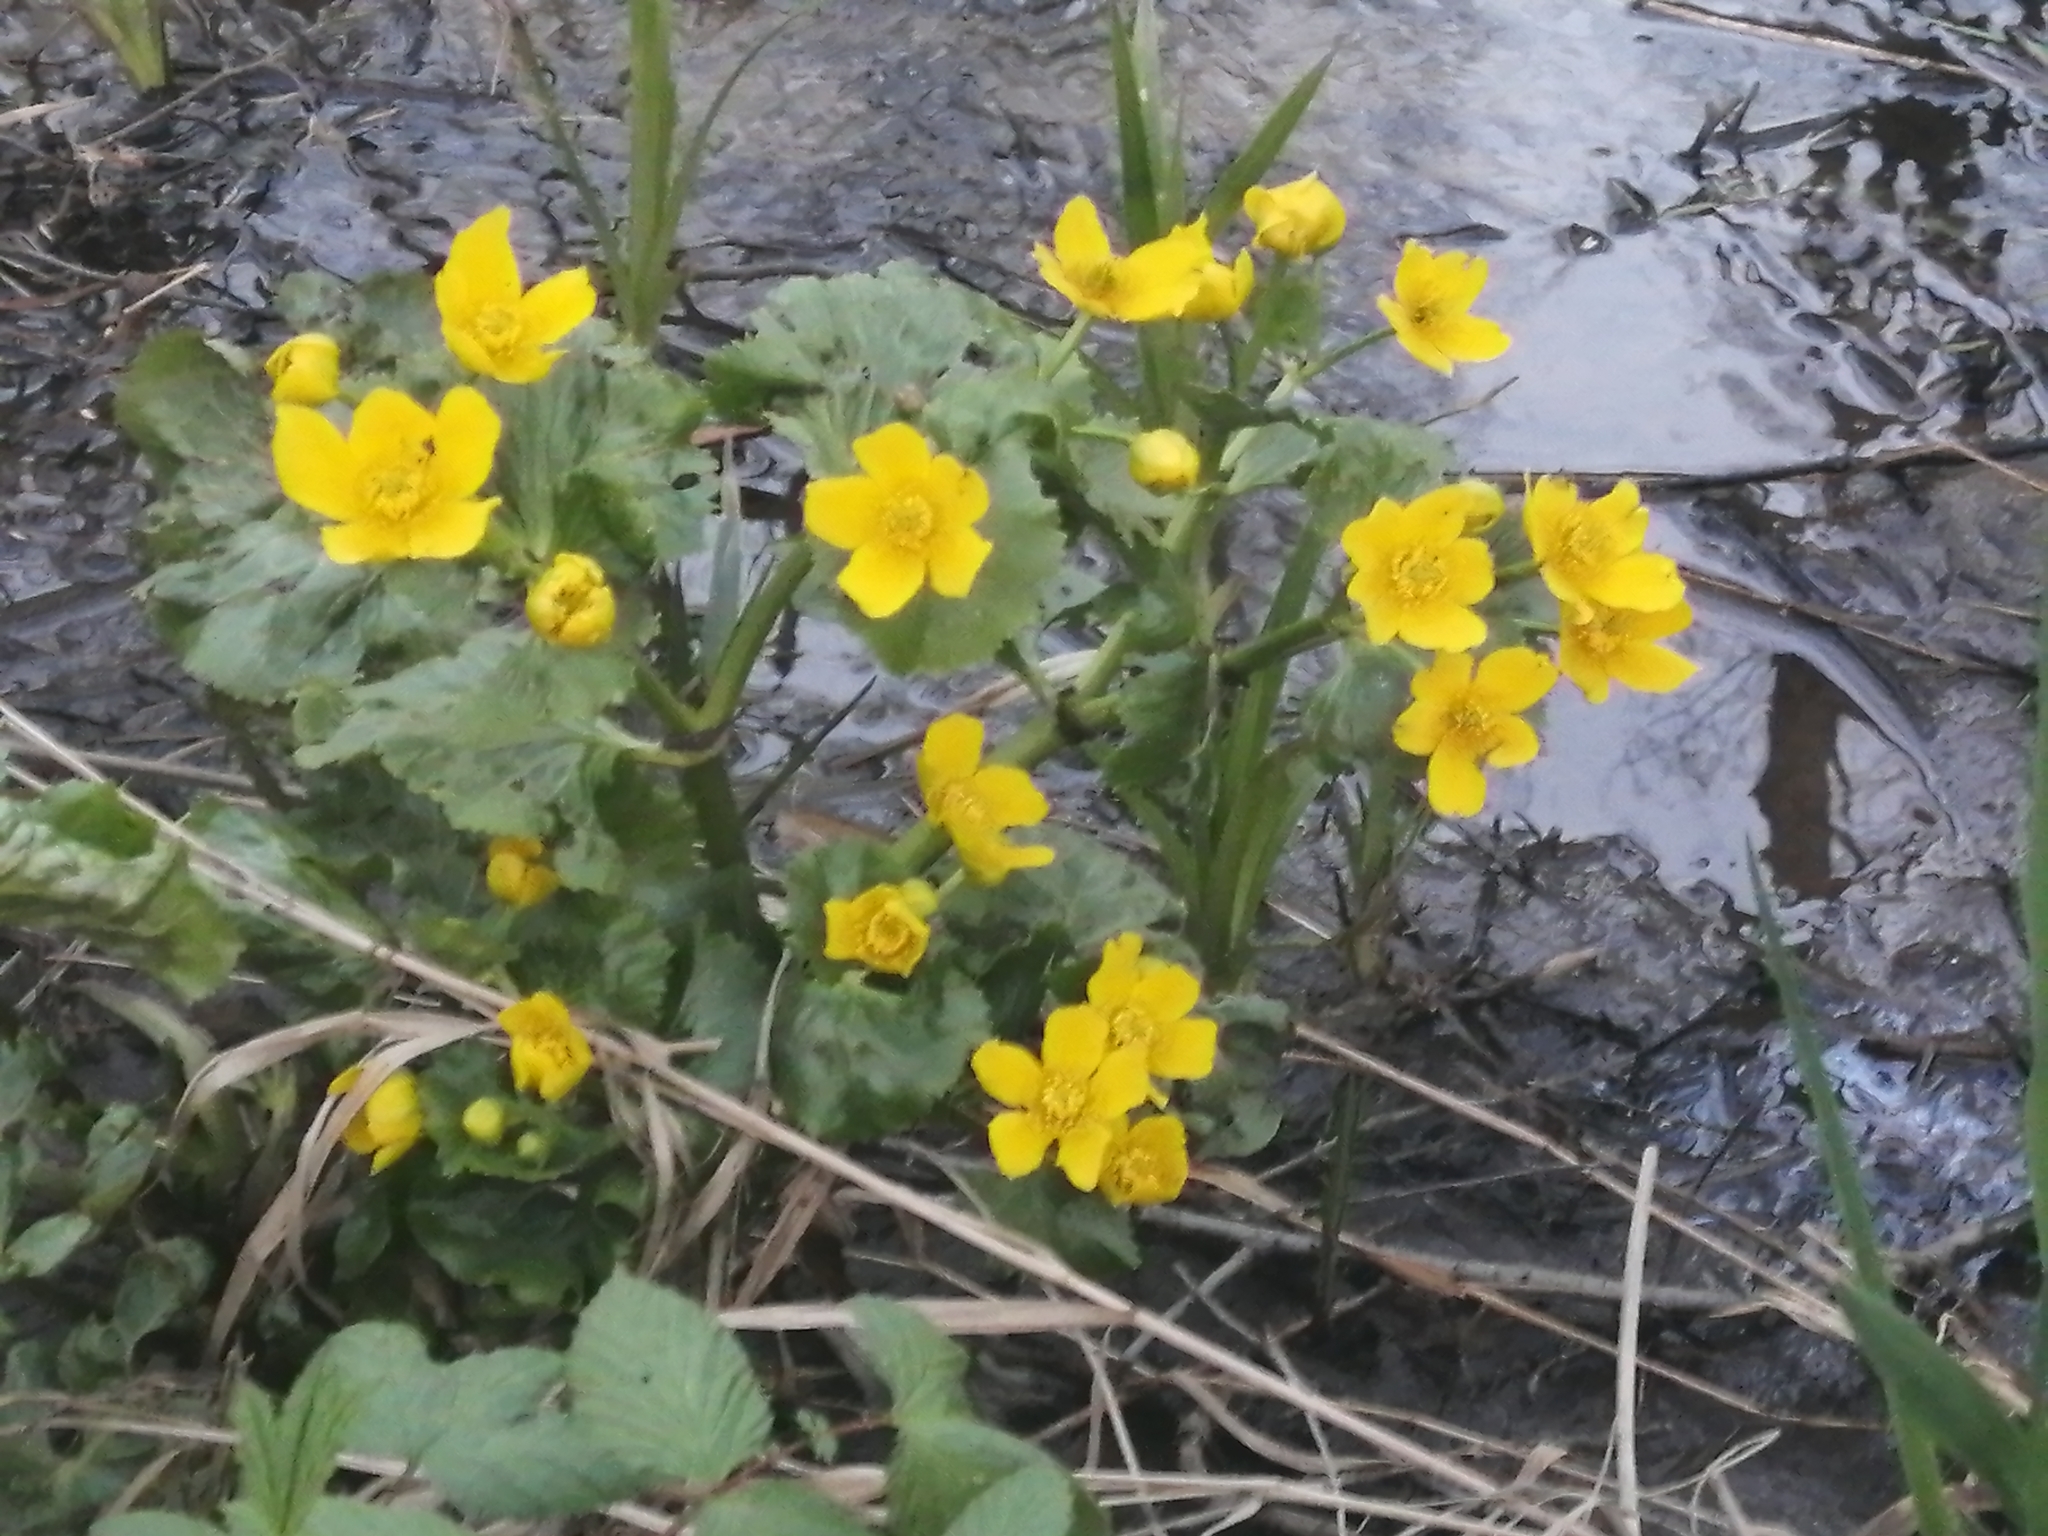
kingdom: Plantae
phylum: Tracheophyta
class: Magnoliopsida
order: Ranunculales
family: Ranunculaceae
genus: Caltha
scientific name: Caltha palustris
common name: Marsh marigold
